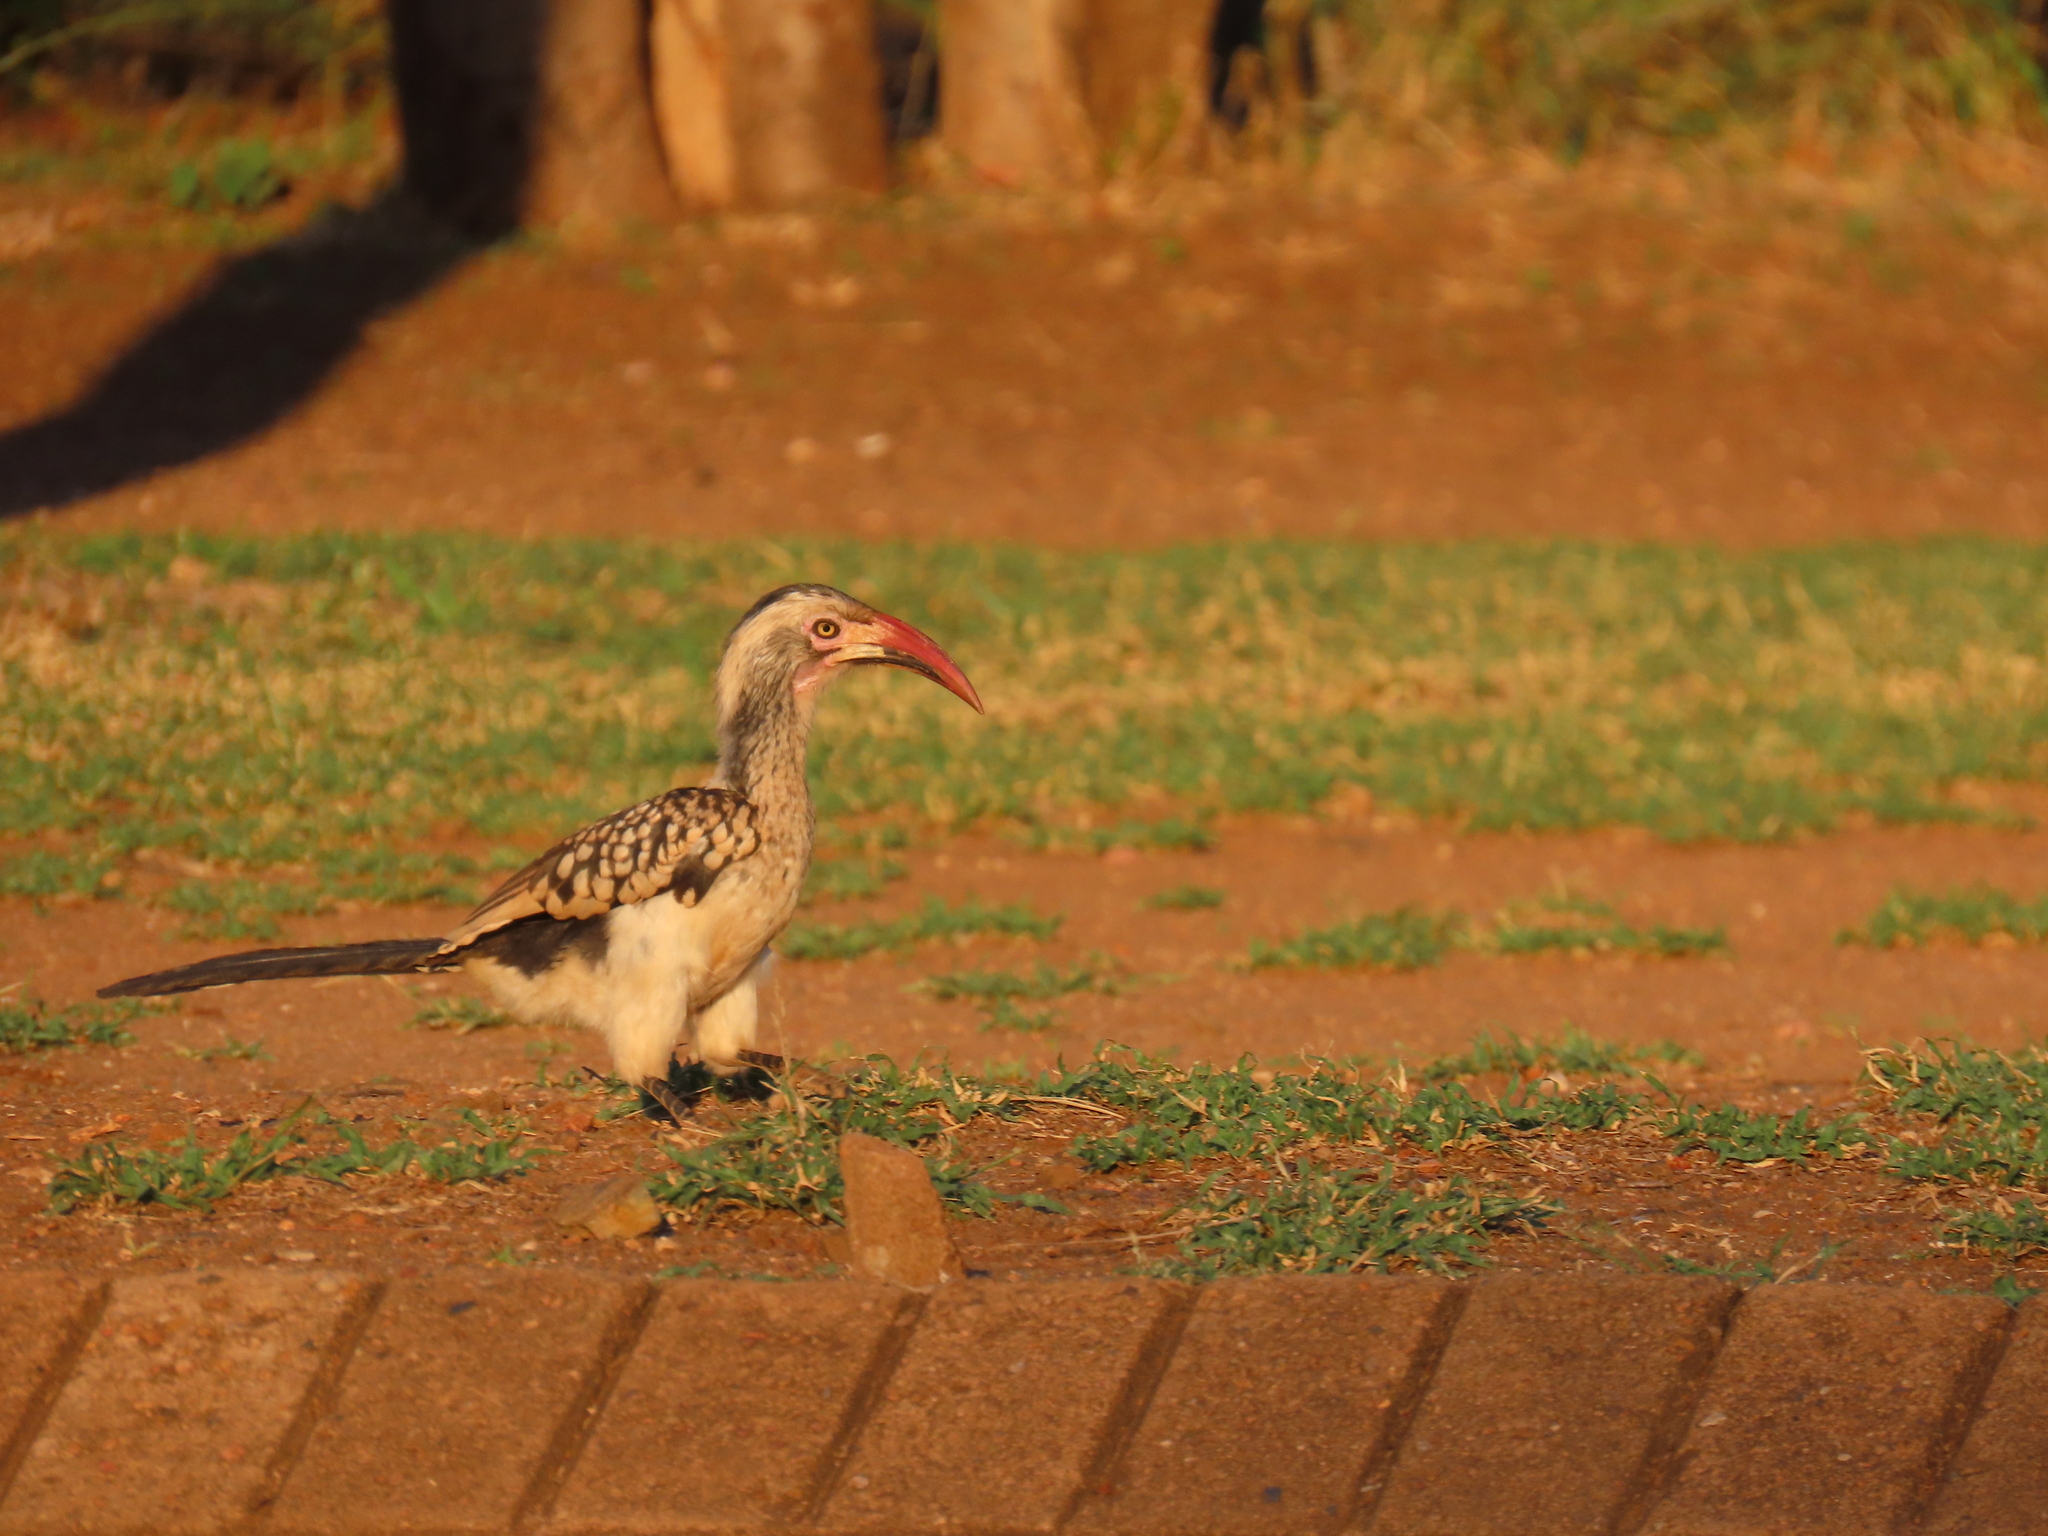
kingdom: Animalia
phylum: Chordata
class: Aves
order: Bucerotiformes
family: Bucerotidae
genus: Tockus
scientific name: Tockus rufirostris
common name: Southern red-billed hornbill
